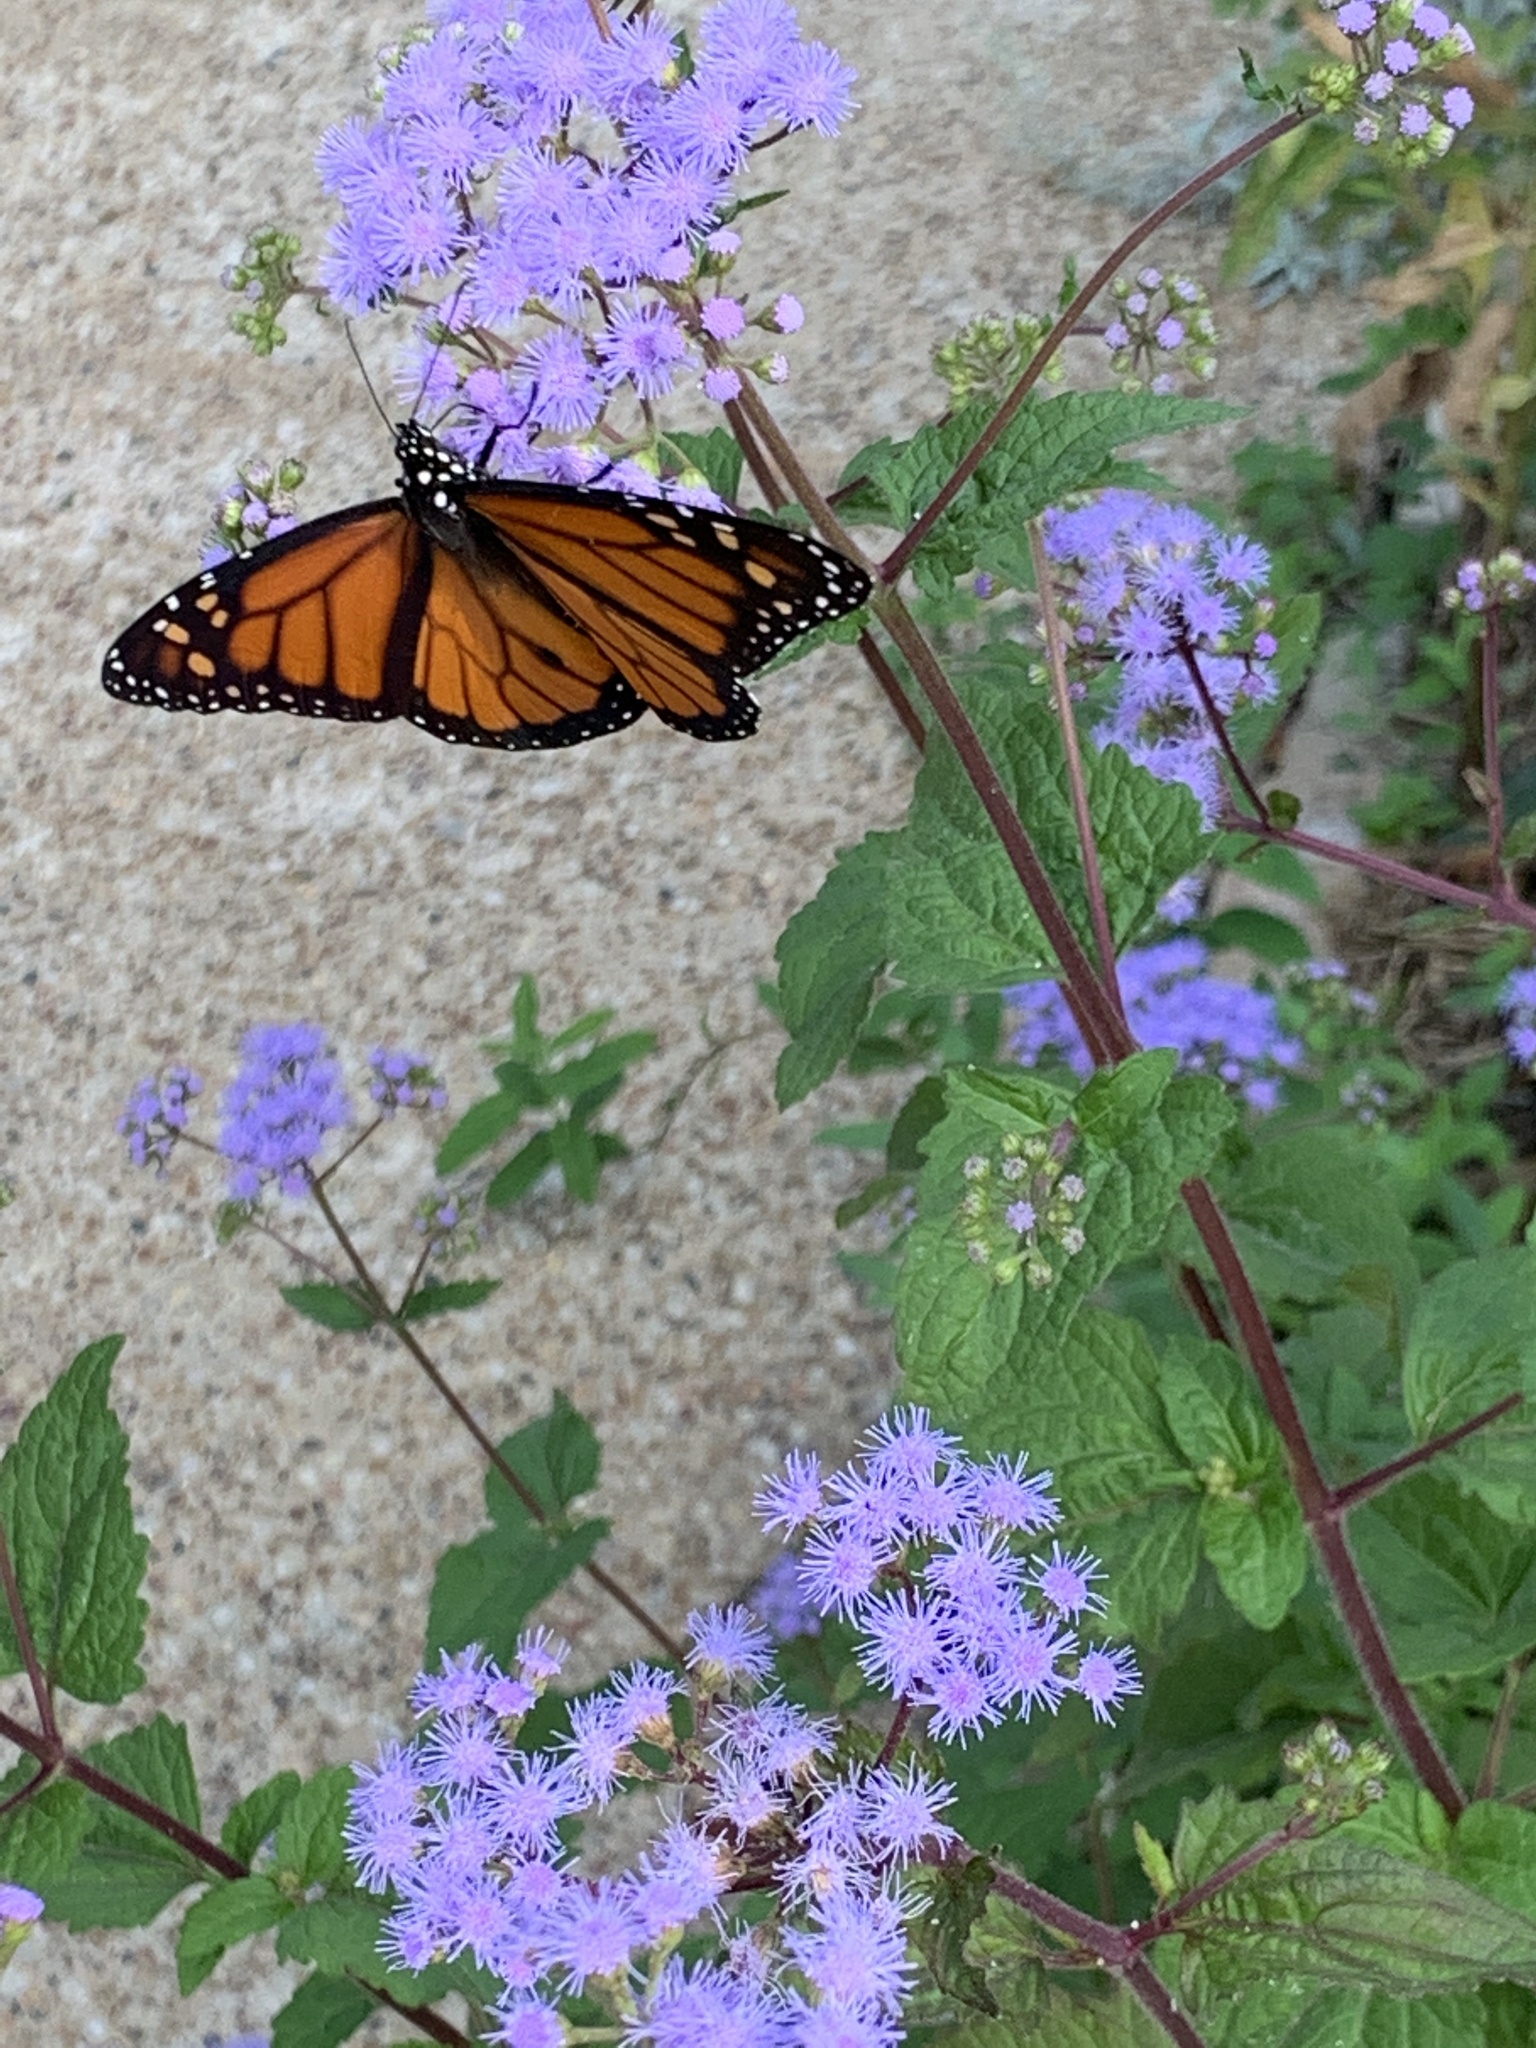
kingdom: Animalia
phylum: Arthropoda
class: Insecta
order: Lepidoptera
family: Nymphalidae
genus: Danaus
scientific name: Danaus plexippus
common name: Monarch
